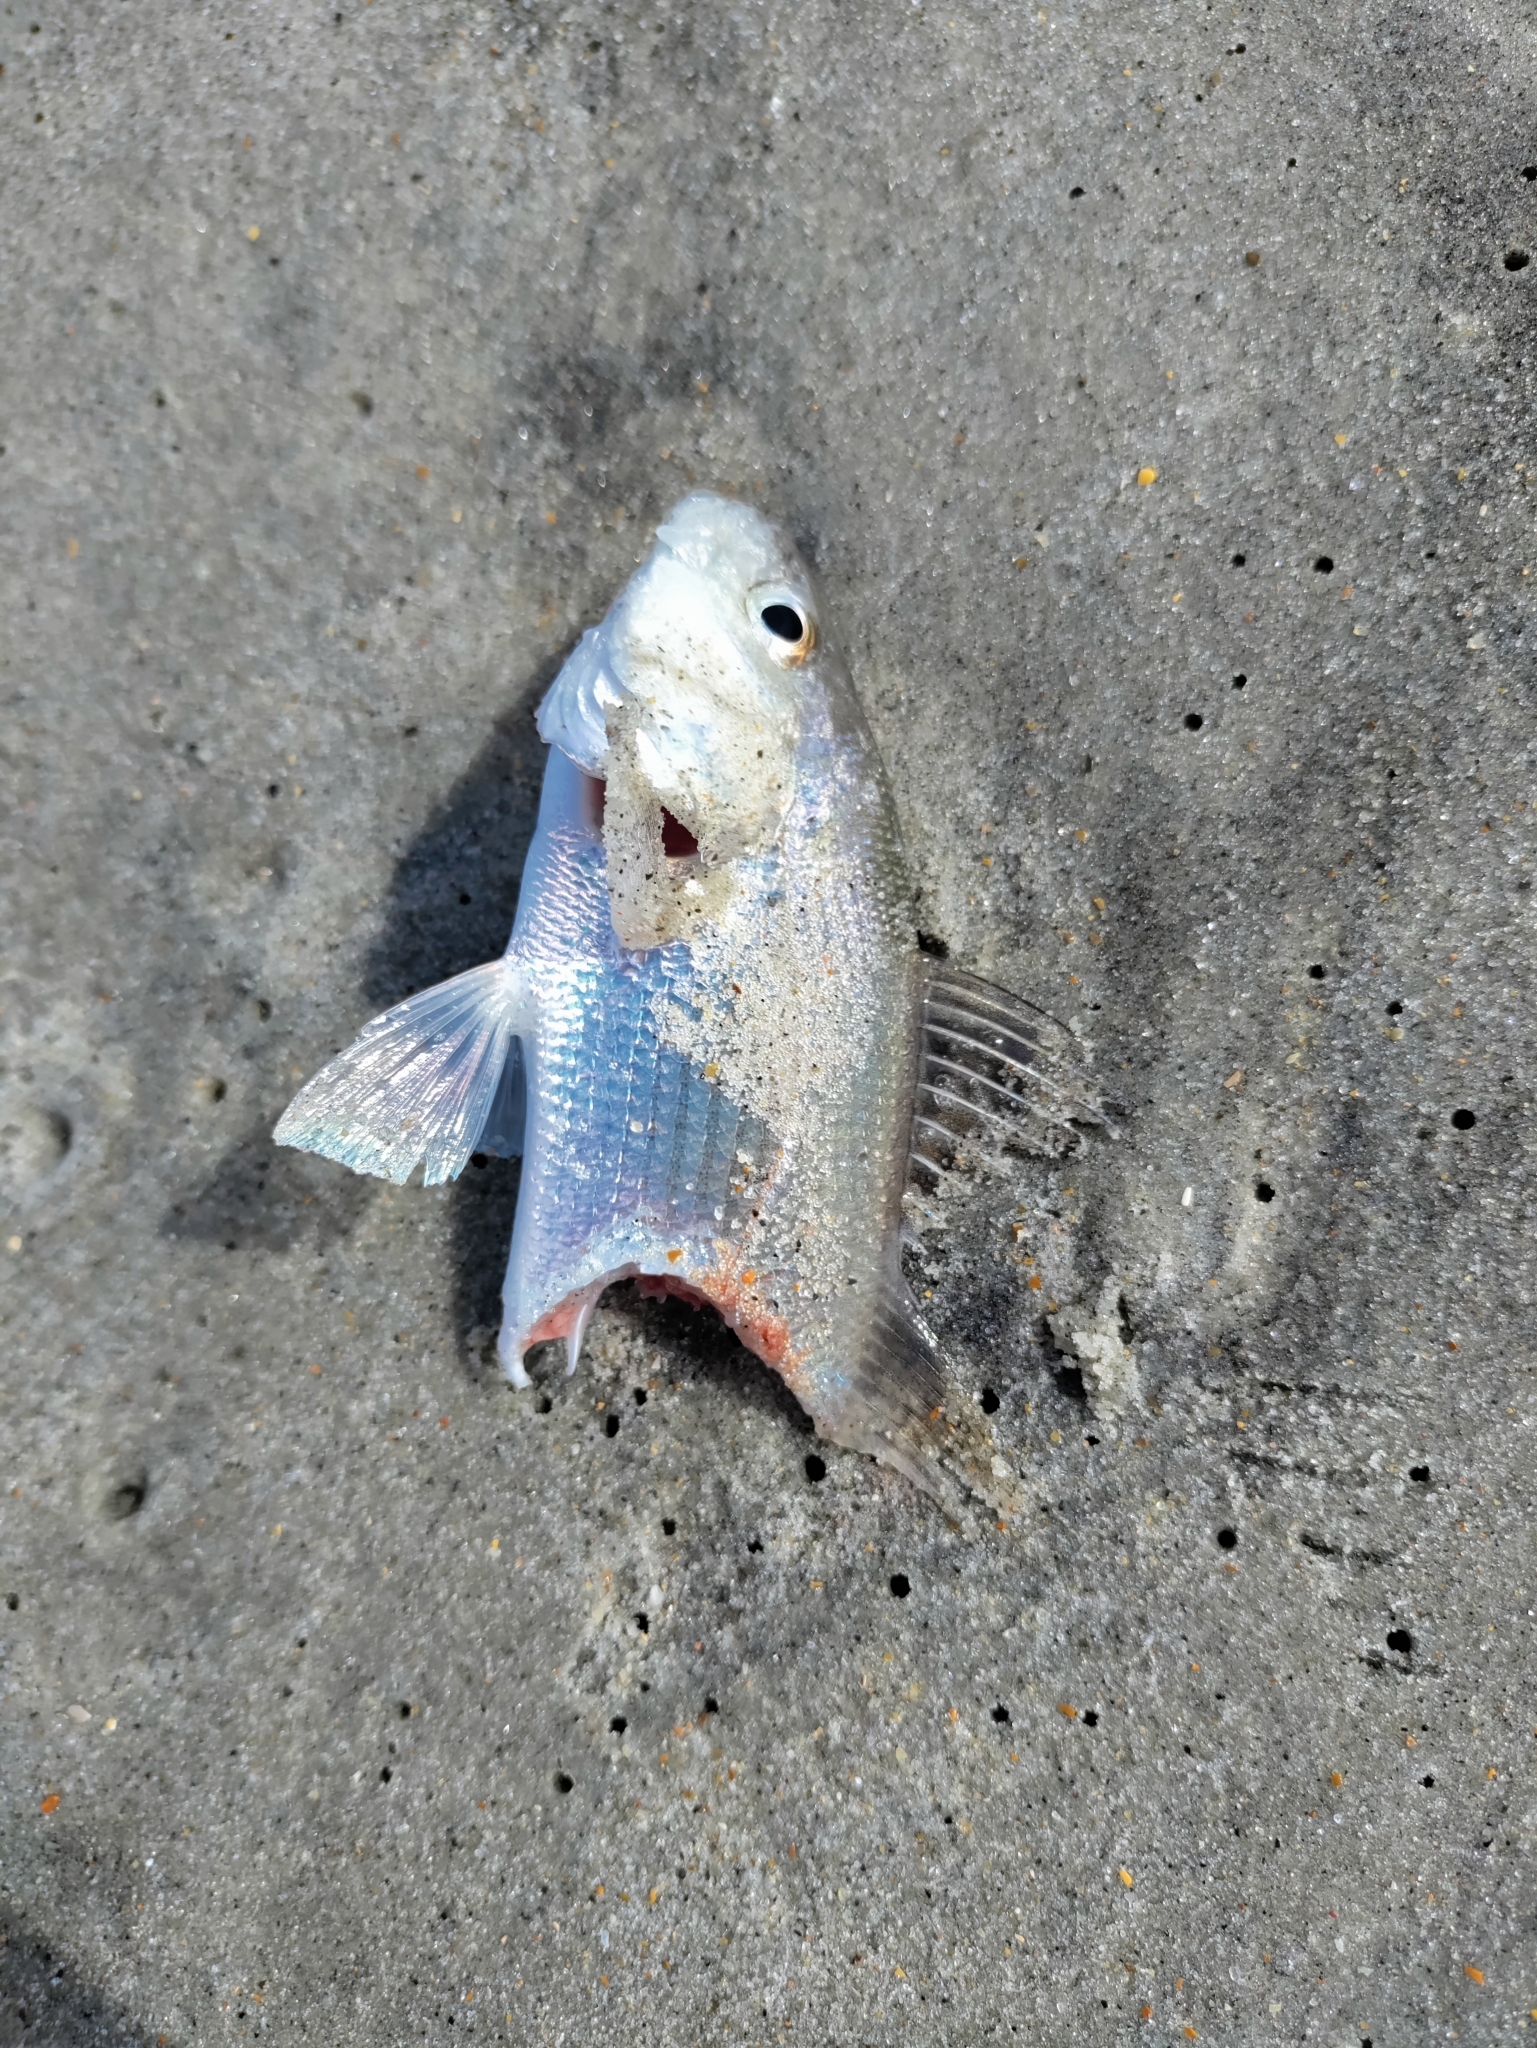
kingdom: Animalia
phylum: Chordata
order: Perciformes
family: Sciaenidae
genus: Bairdiella
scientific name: Bairdiella chrysoura
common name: Silver perch
